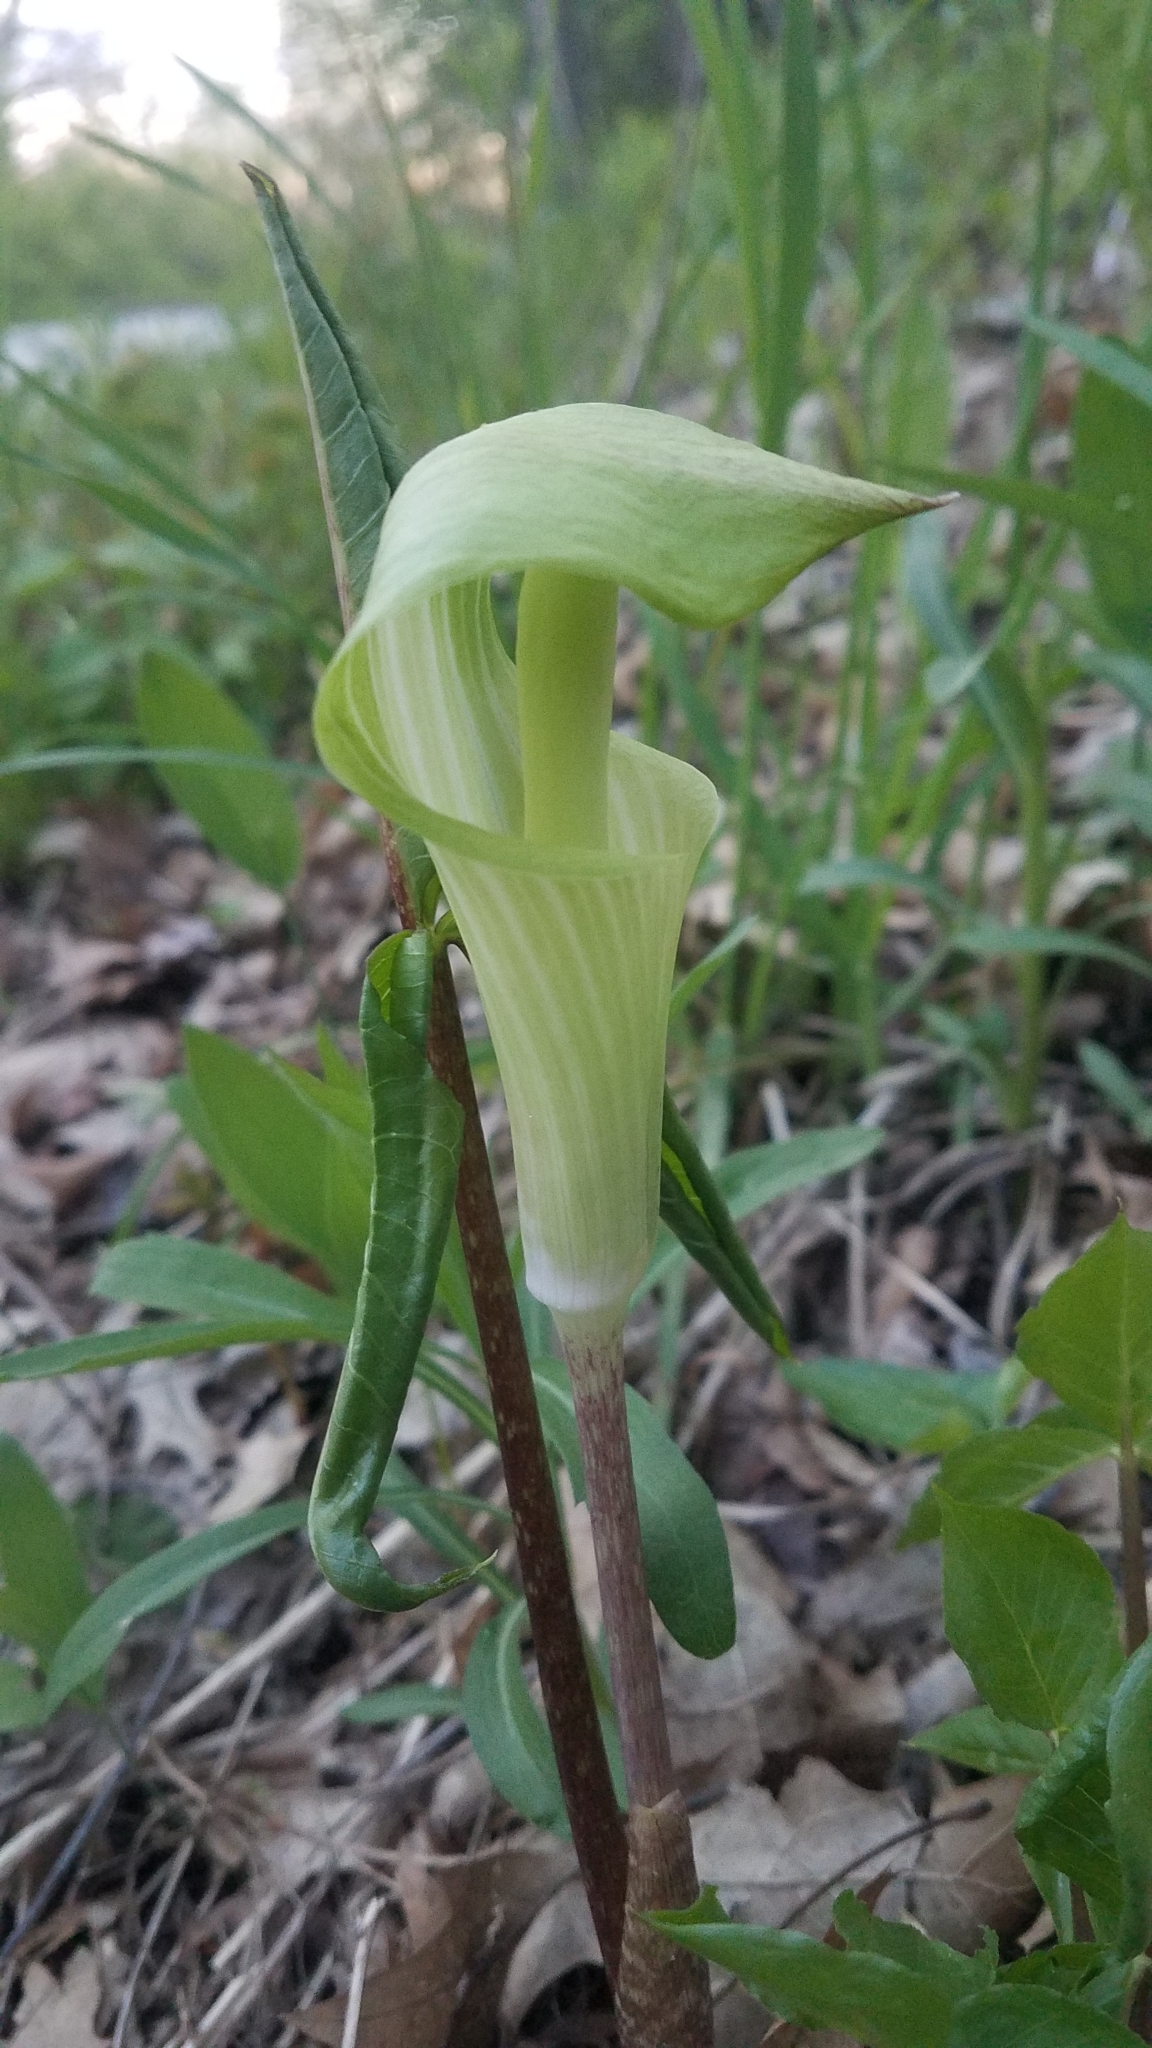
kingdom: Plantae
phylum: Tracheophyta
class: Liliopsida
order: Alismatales
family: Araceae
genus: Arisaema
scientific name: Arisaema triphyllum
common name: Jack-in-the-pulpit
